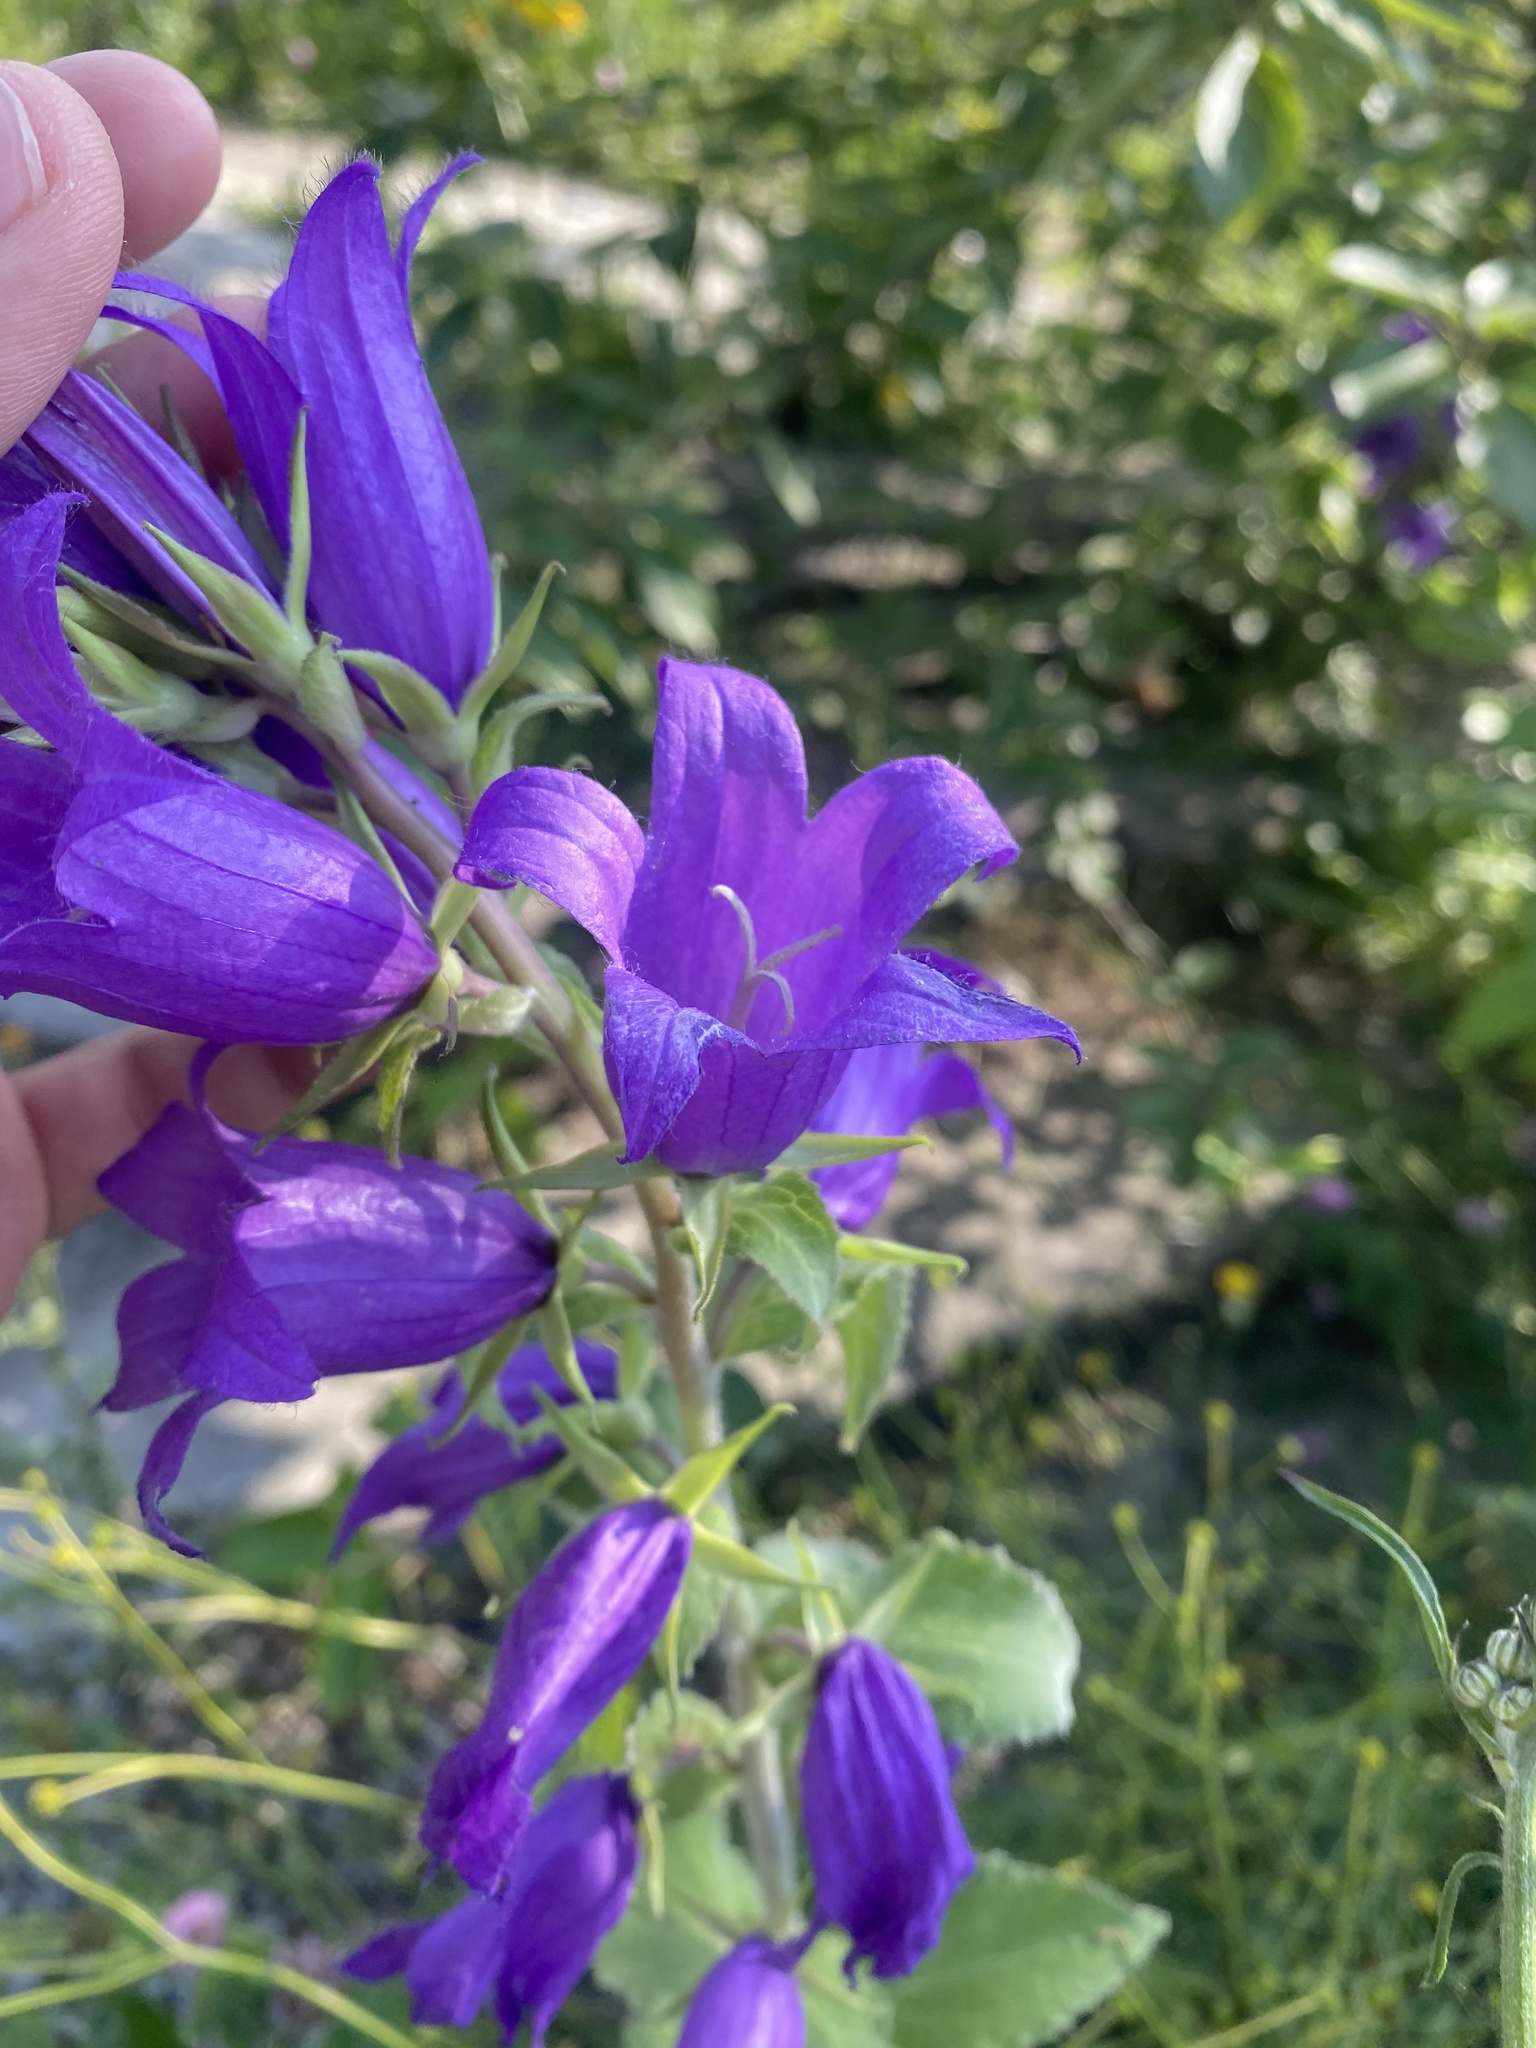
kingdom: Plantae
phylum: Tracheophyta
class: Magnoliopsida
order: Asterales
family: Campanulaceae
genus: Campanula
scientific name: Campanula latifolia
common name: Giant bellflower
